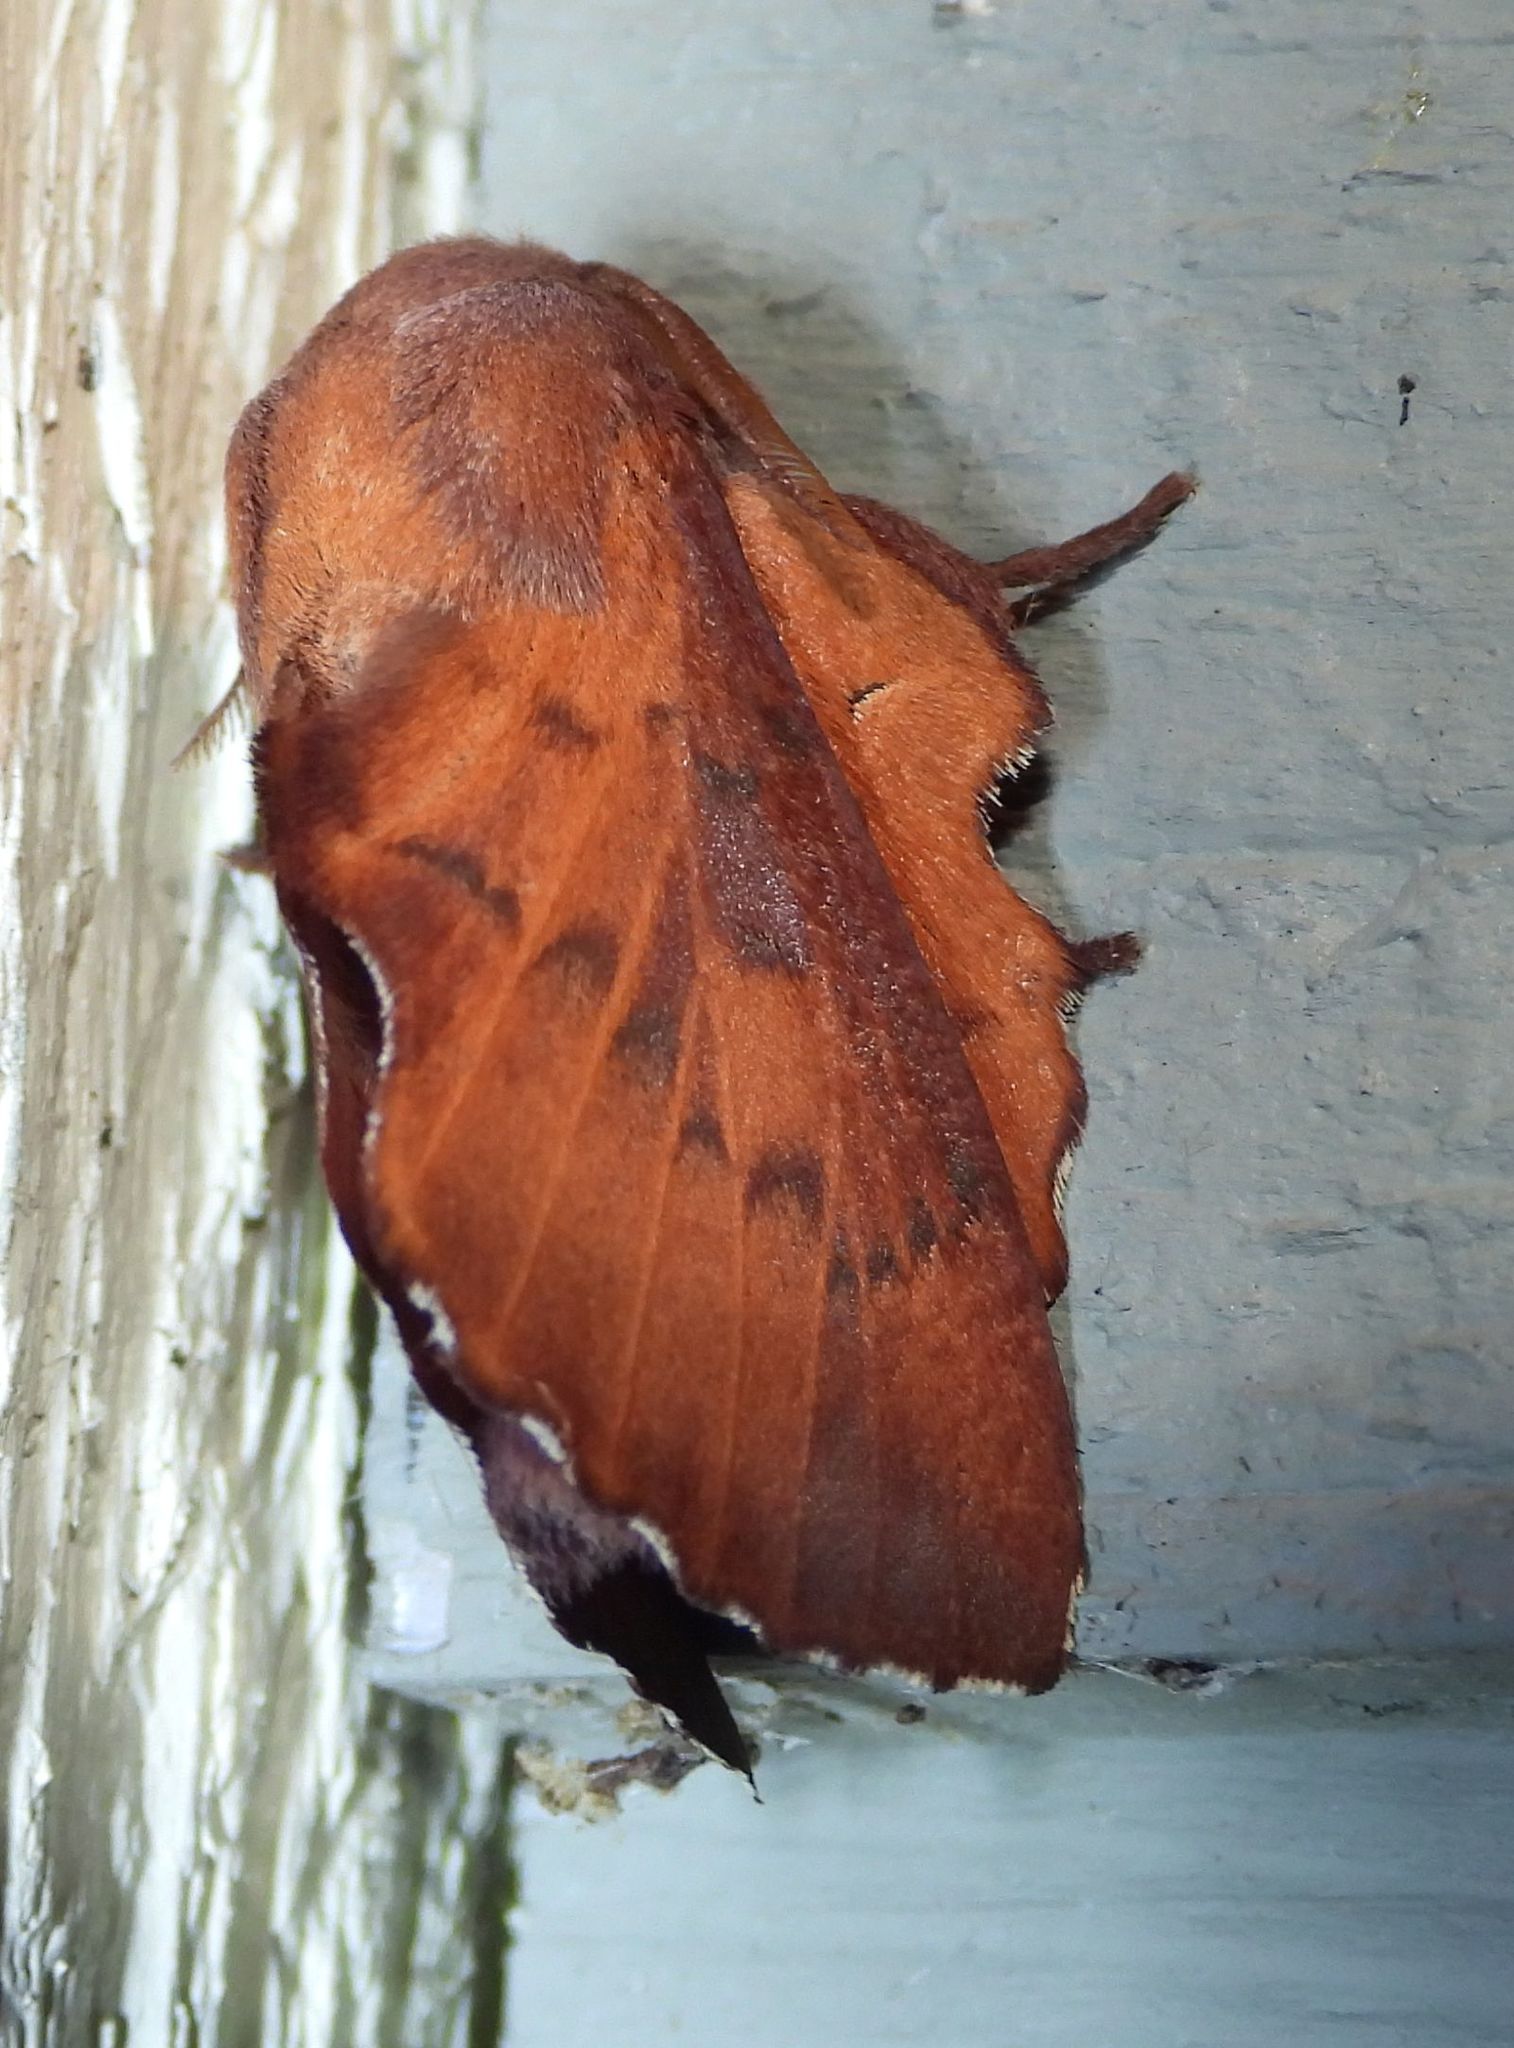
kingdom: Animalia
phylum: Arthropoda
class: Insecta
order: Lepidoptera
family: Lasiocampidae
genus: Phyllodesma
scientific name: Phyllodesma americana
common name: American lappet moth
